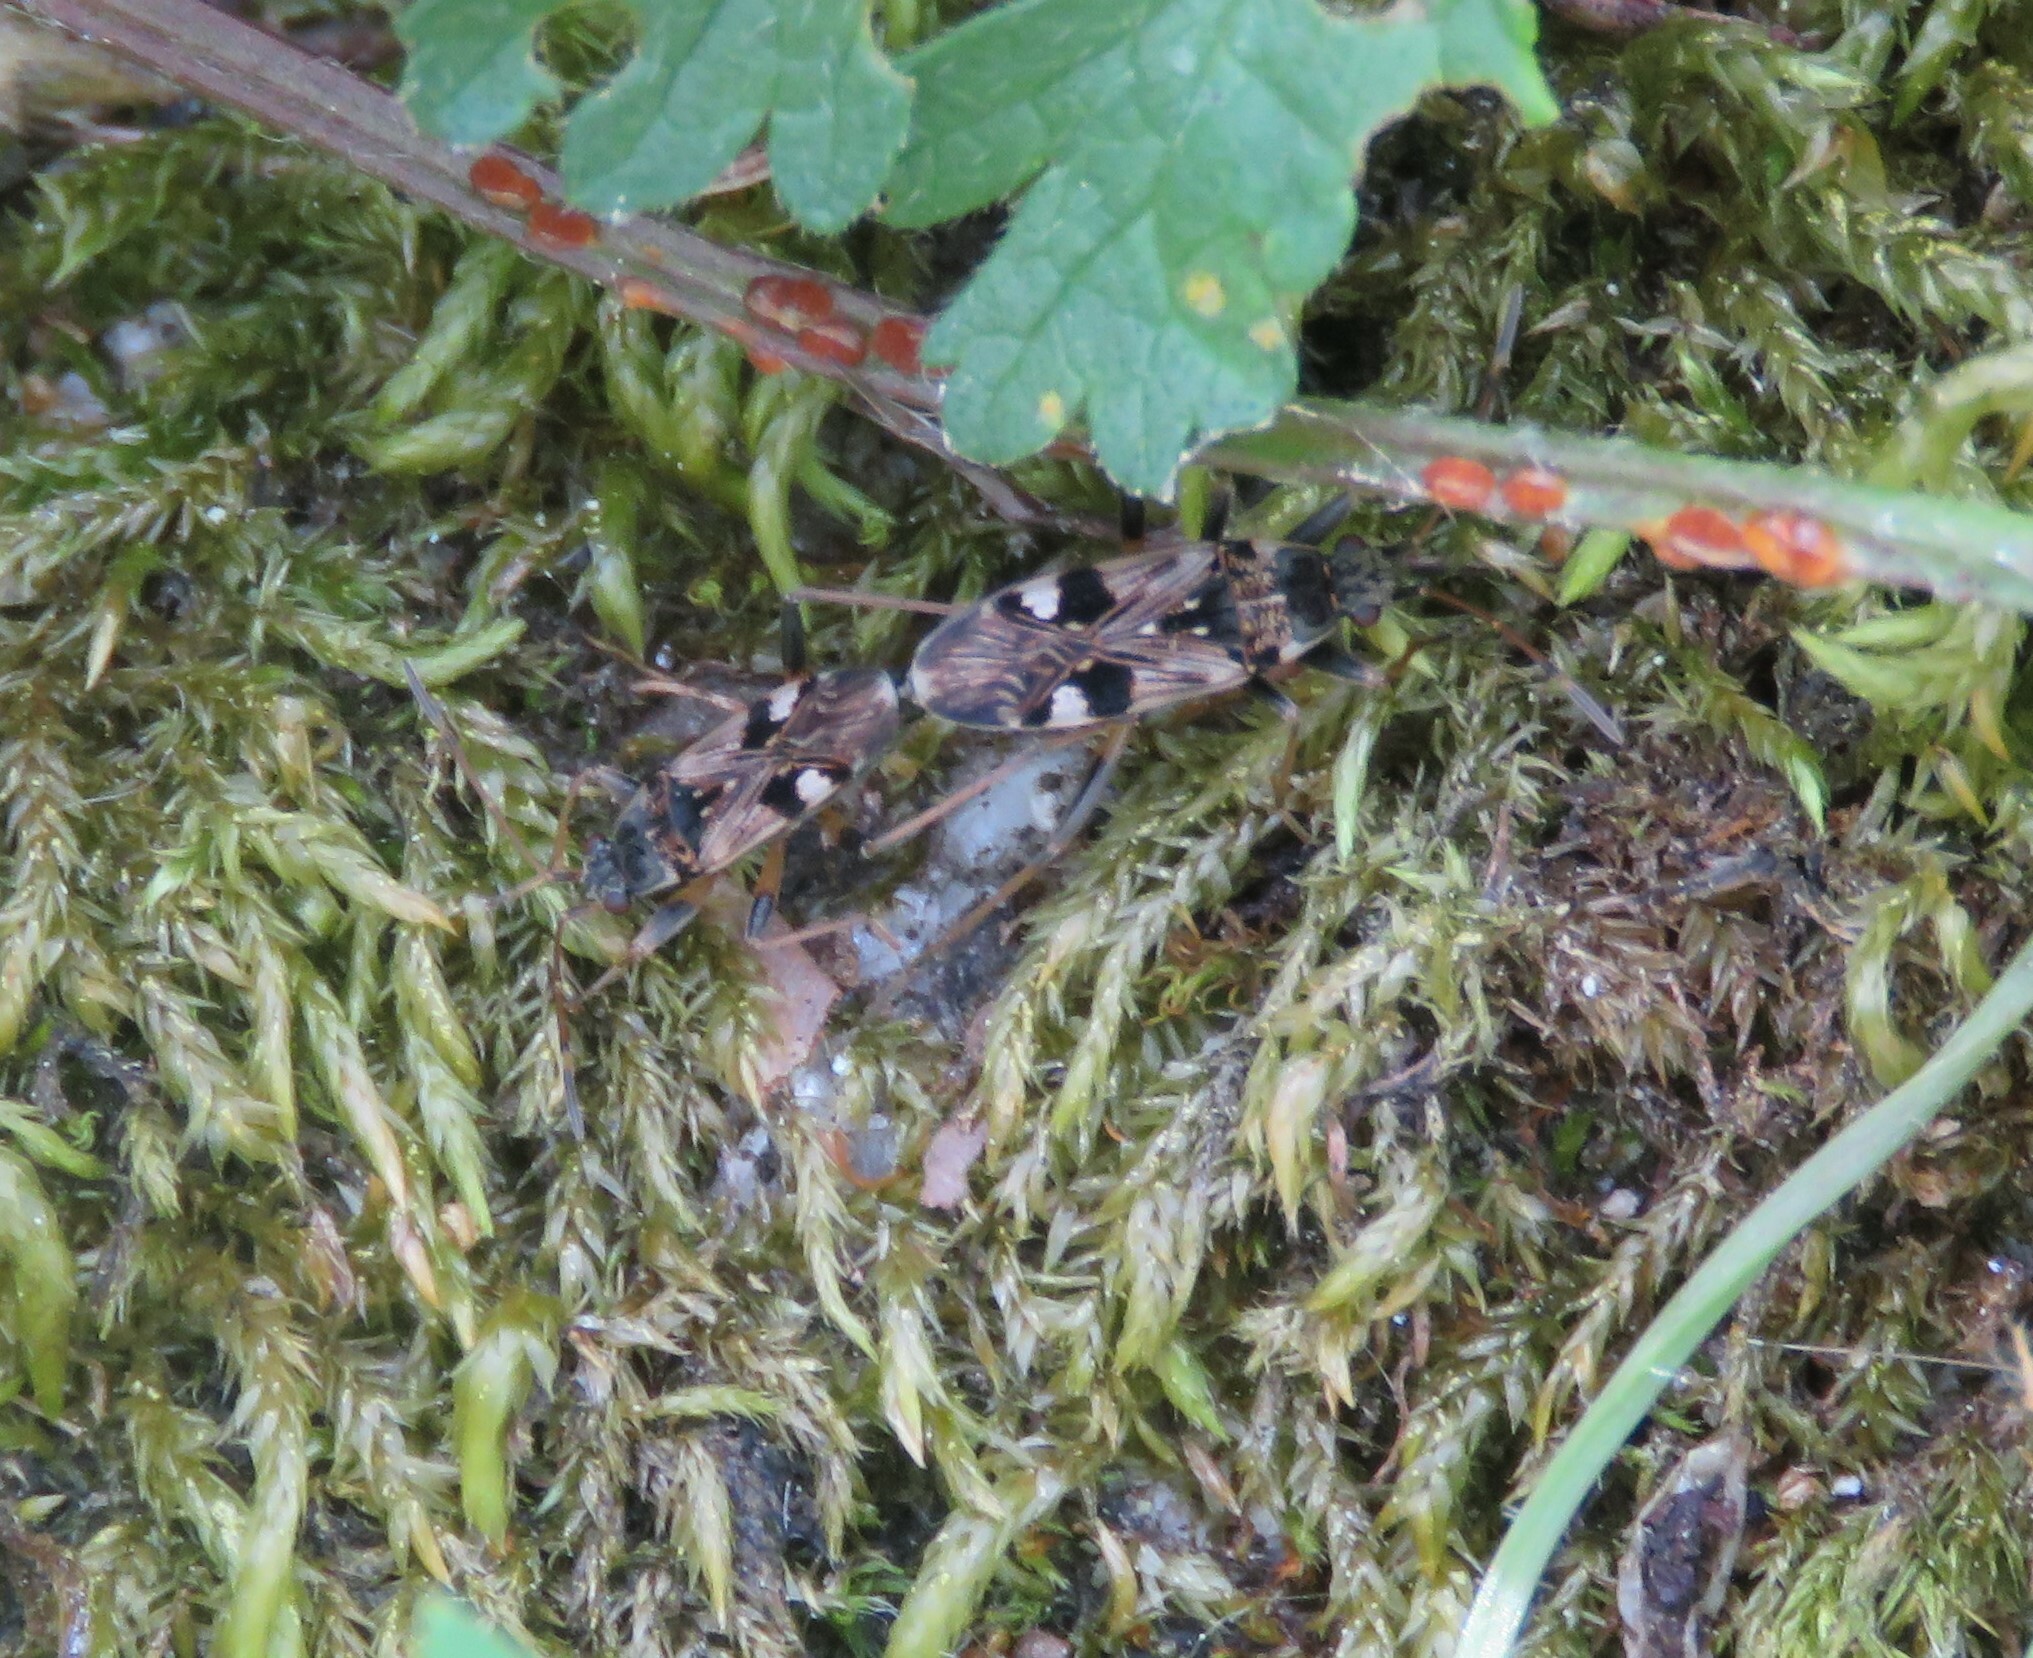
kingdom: Animalia
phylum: Arthropoda
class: Insecta
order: Hemiptera
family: Rhyparochromidae
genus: Beosus
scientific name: Beosus maritimus
